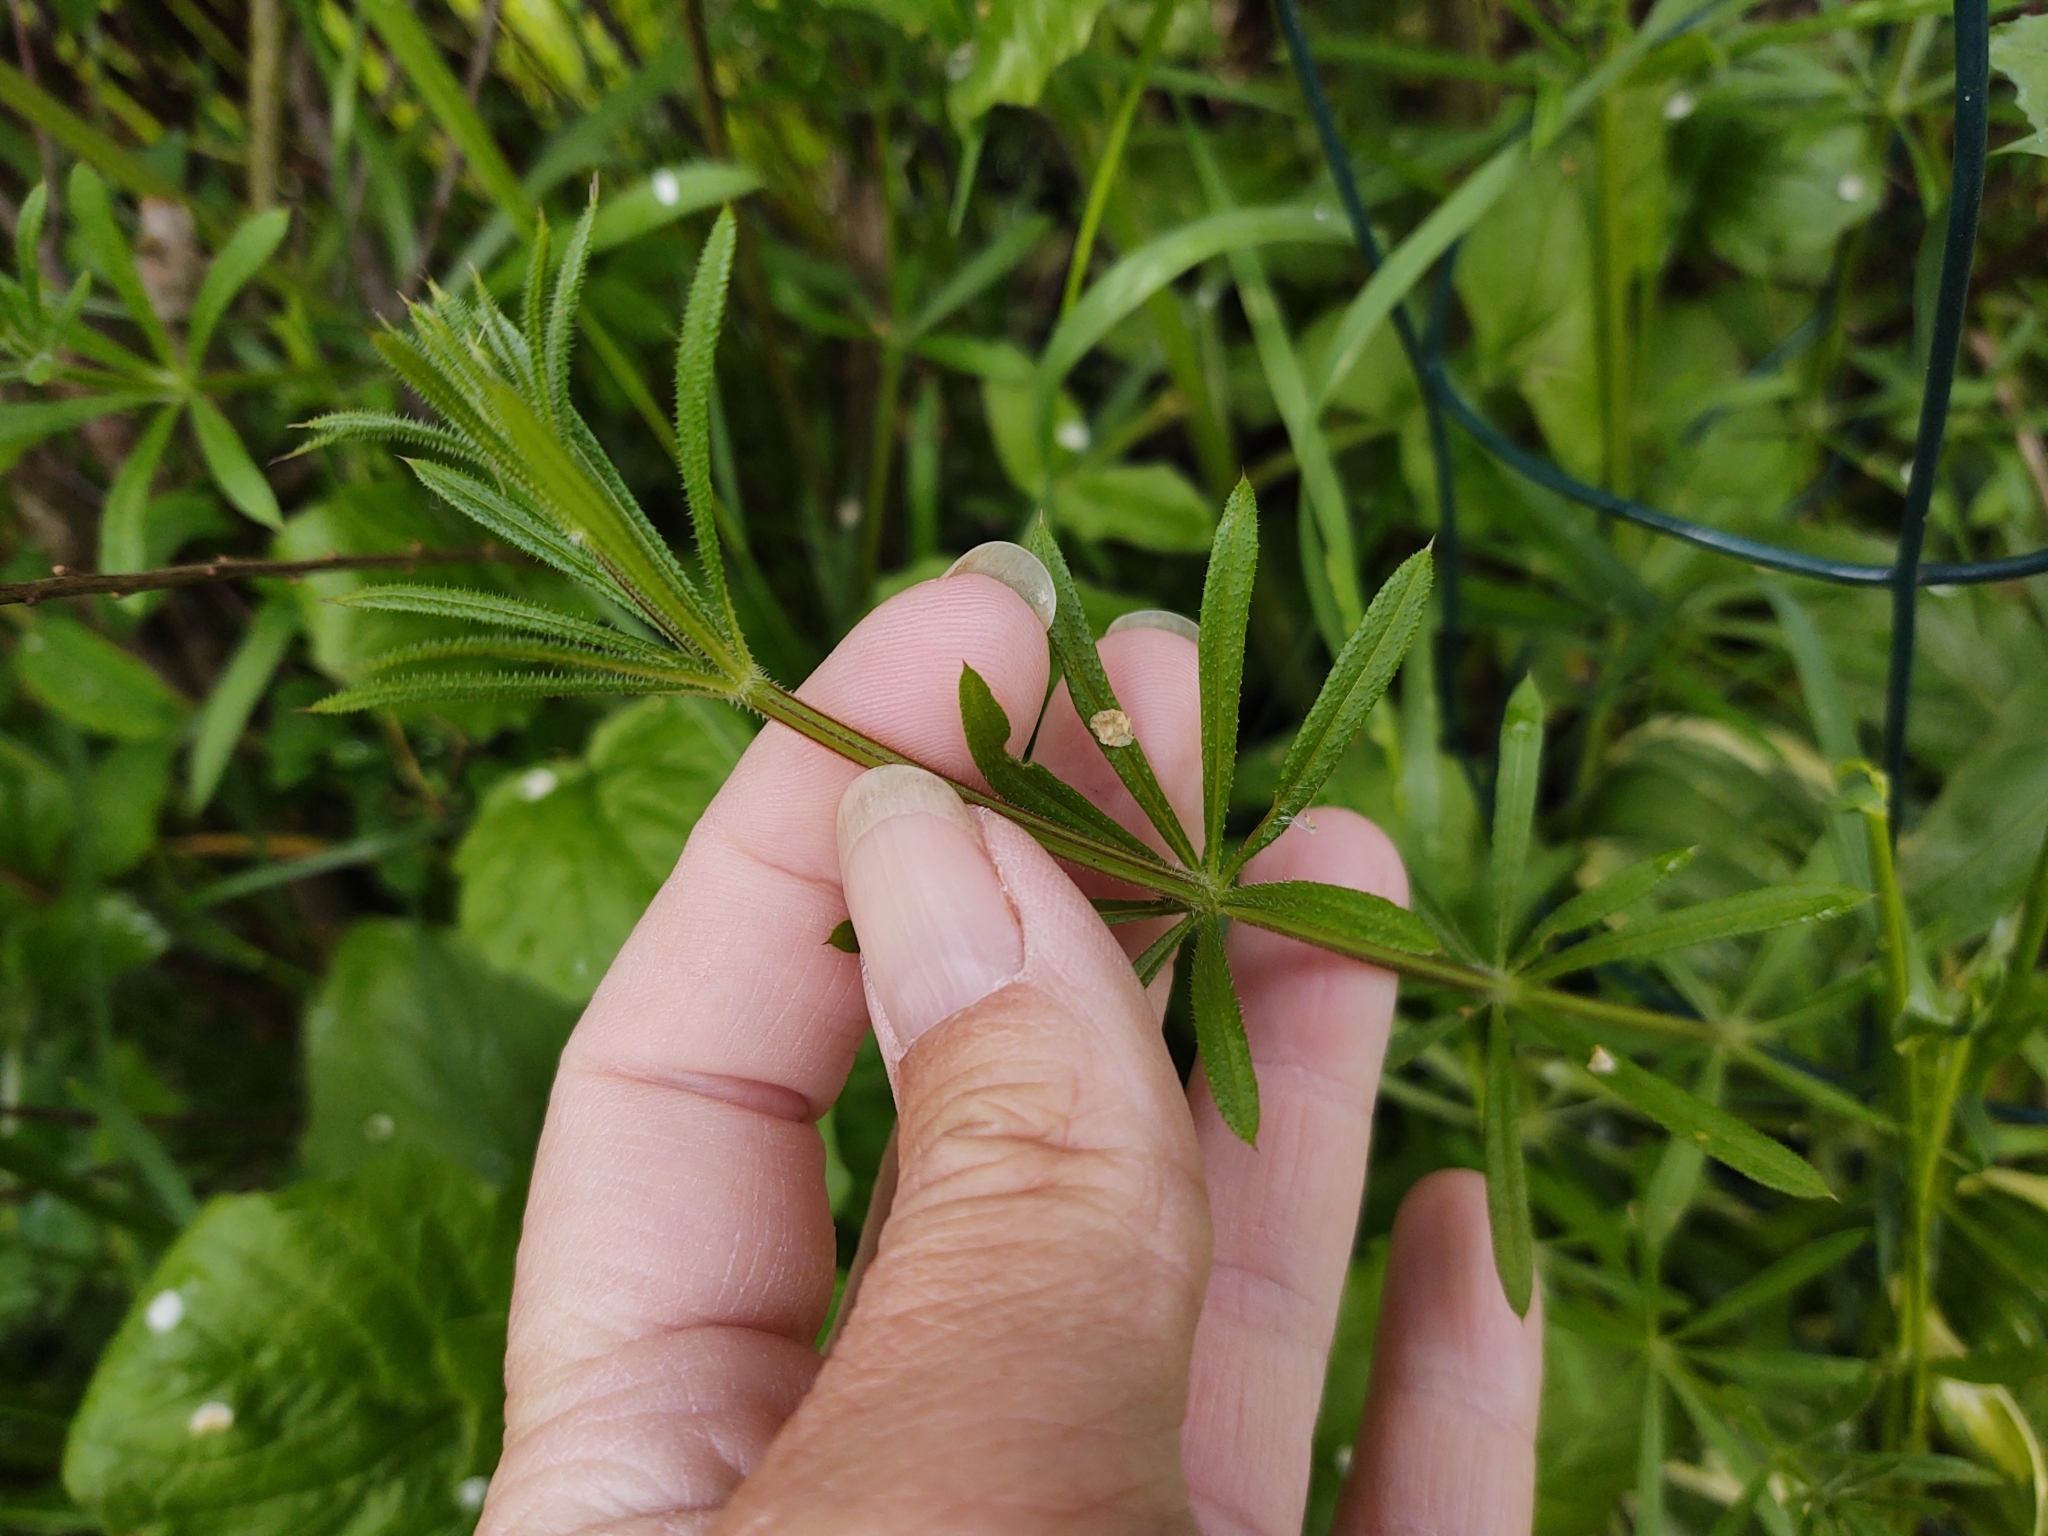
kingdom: Plantae
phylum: Tracheophyta
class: Magnoliopsida
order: Gentianales
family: Rubiaceae
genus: Galium
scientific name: Galium aparine
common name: Cleavers
